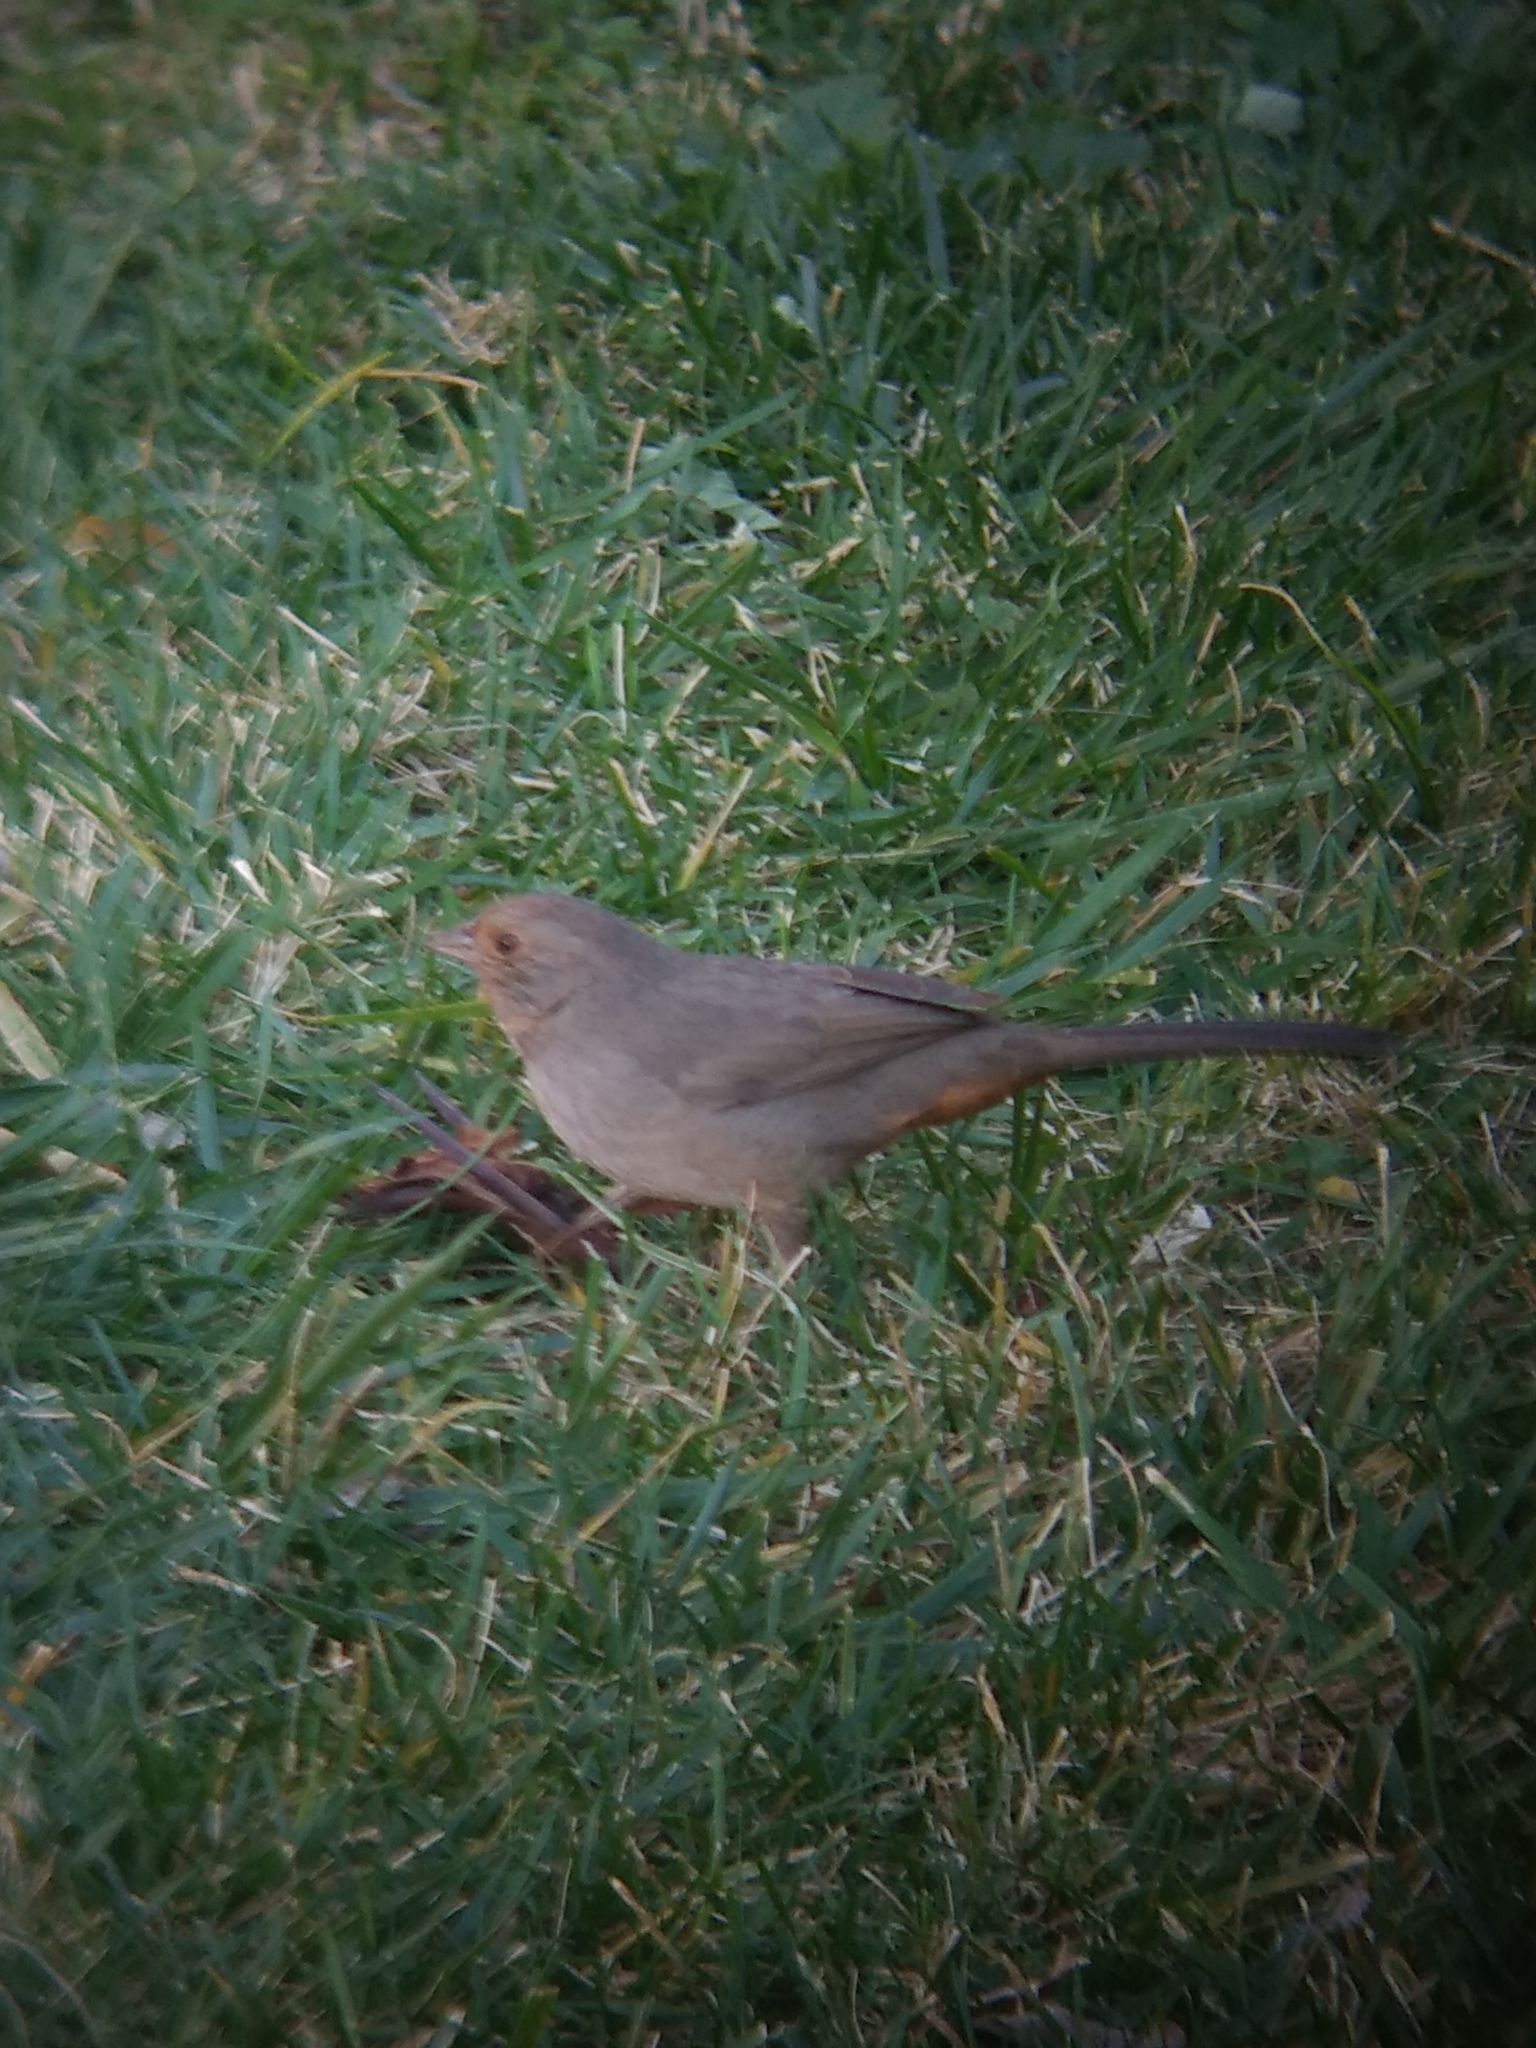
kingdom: Animalia
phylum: Chordata
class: Aves
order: Passeriformes
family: Passerellidae
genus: Melozone
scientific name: Melozone crissalis
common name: California towhee
